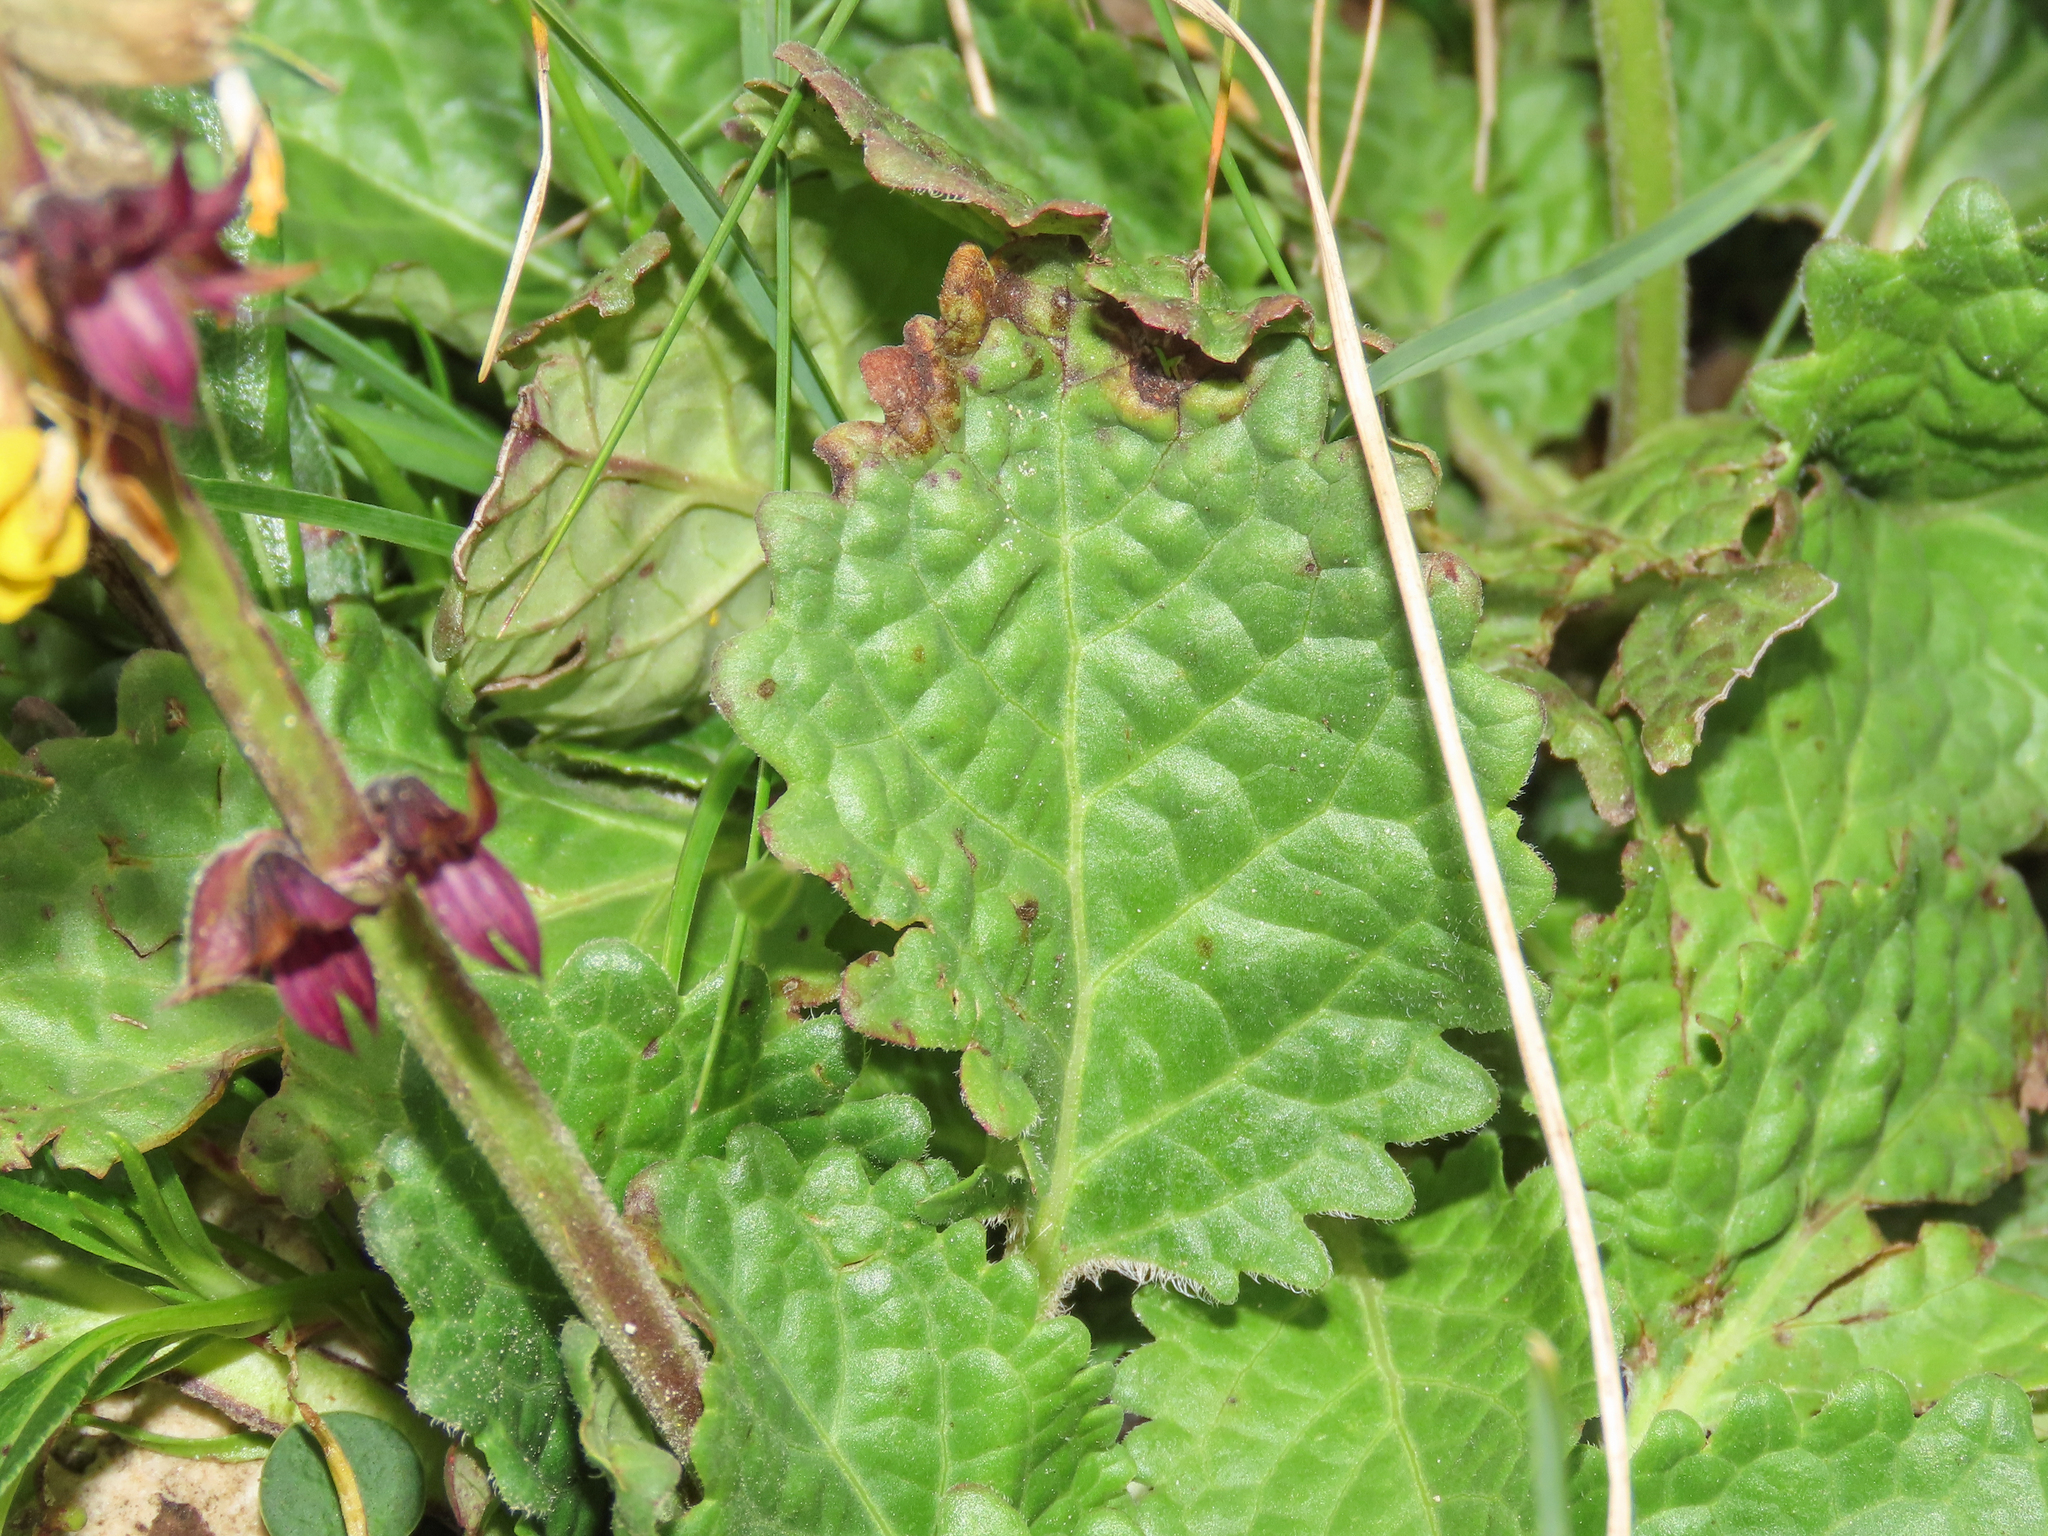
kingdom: Plantae
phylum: Tracheophyta
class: Magnoliopsida
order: Lamiales
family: Lamiaceae
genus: Horminum
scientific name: Horminum pyrenaicum
